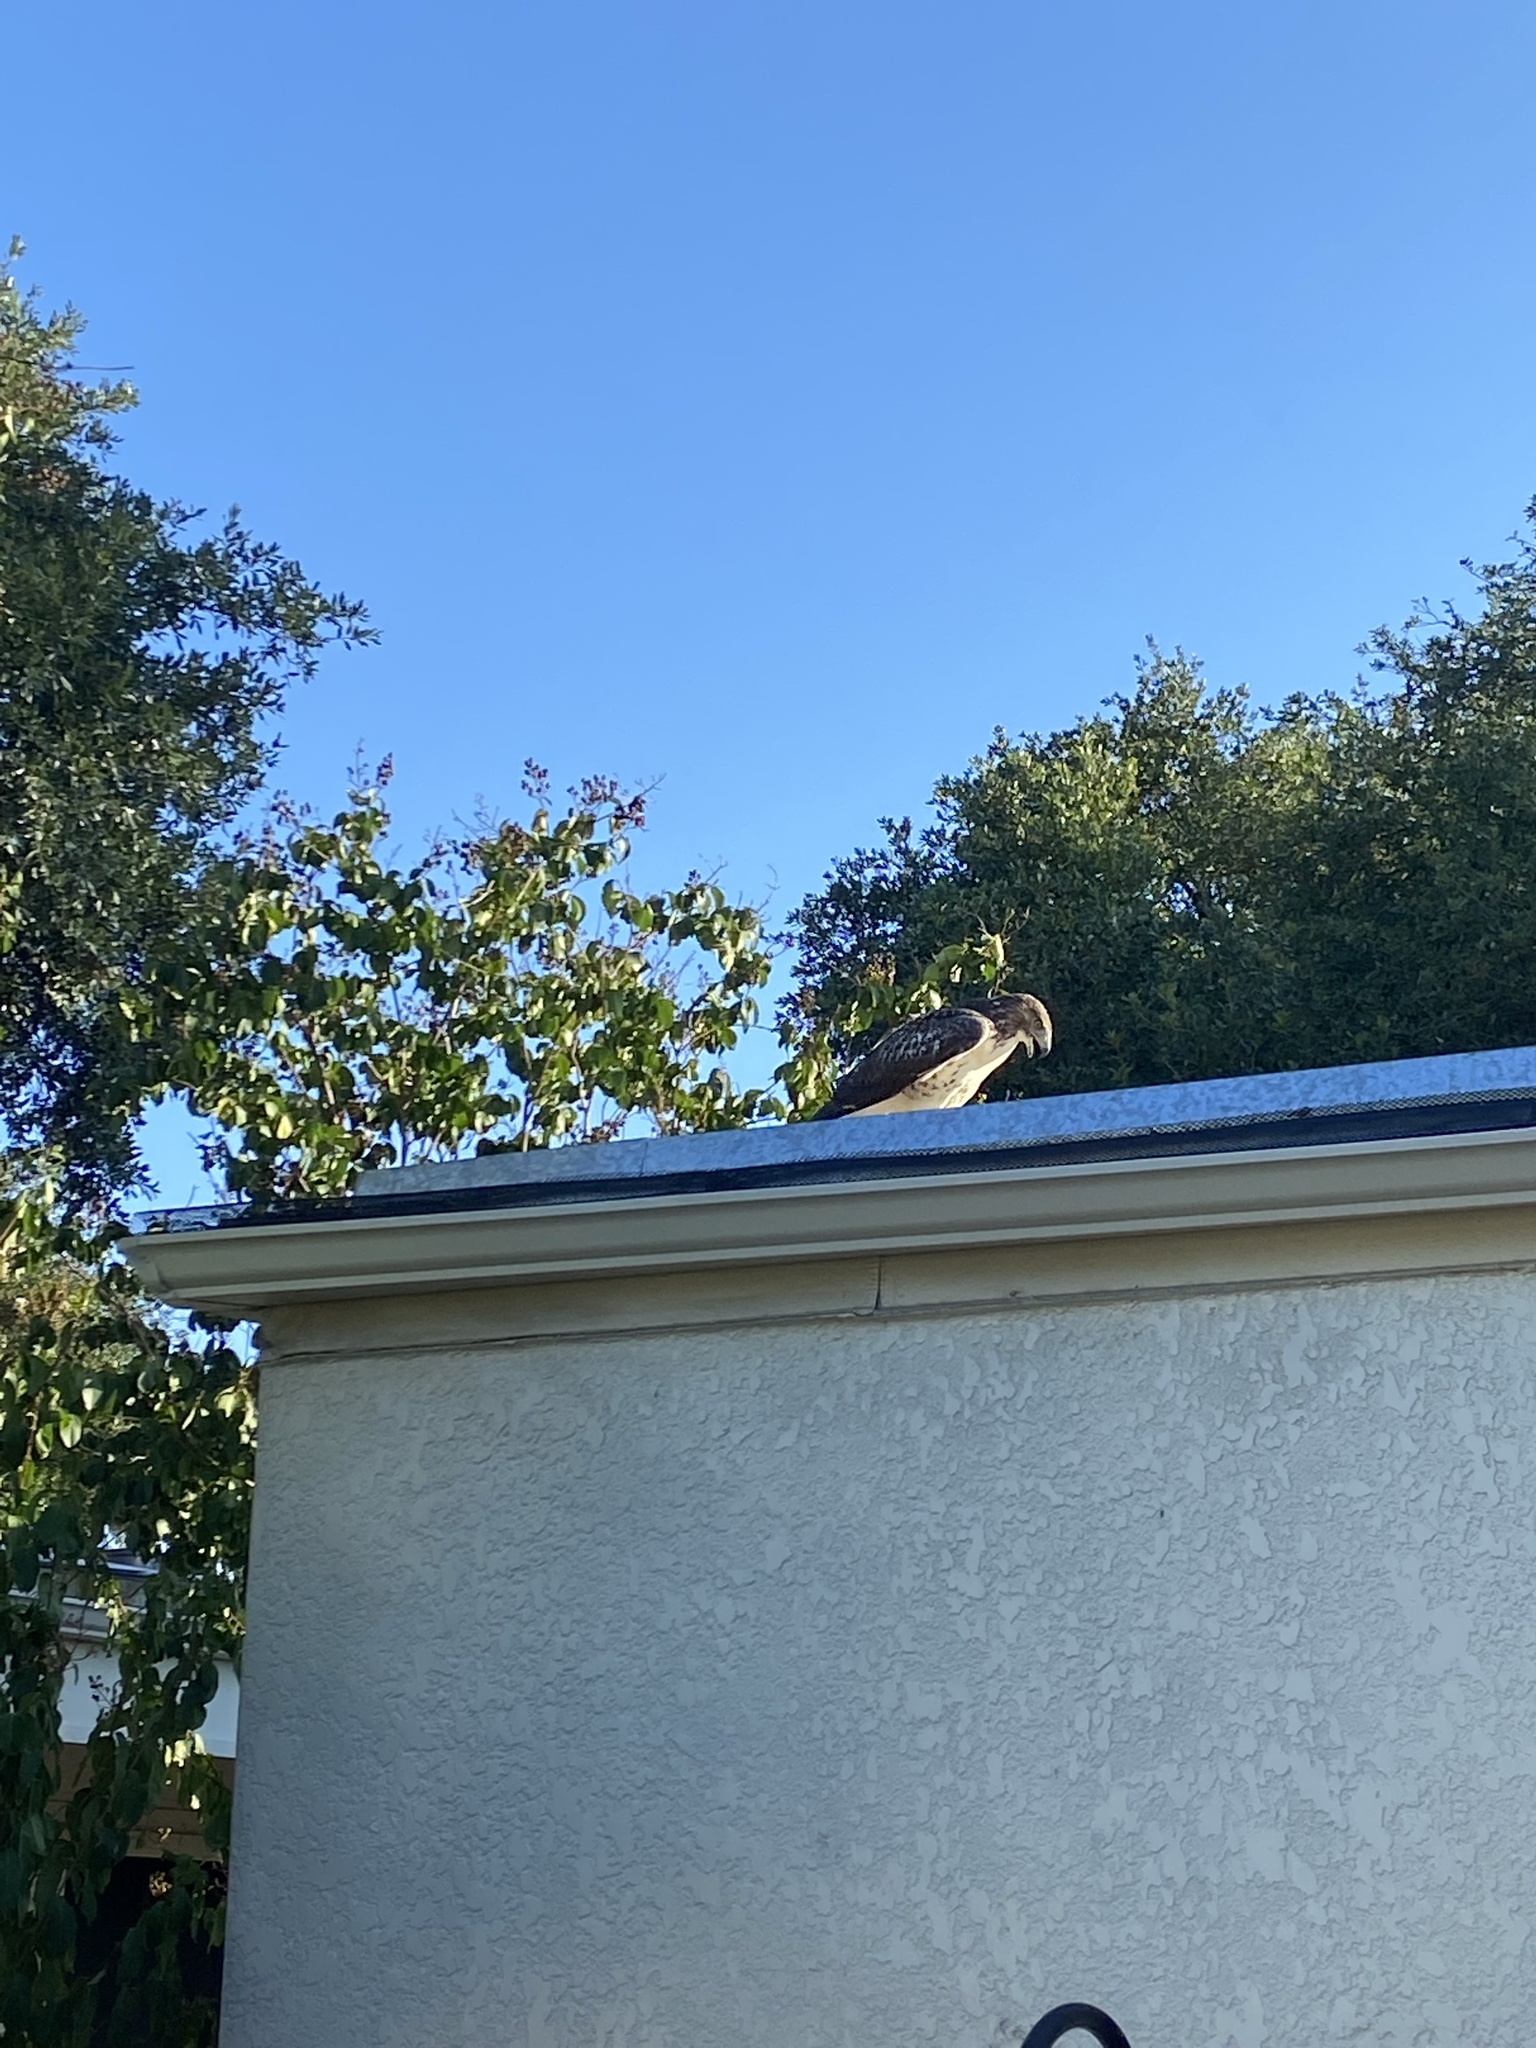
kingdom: Animalia
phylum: Chordata
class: Aves
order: Accipitriformes
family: Accipitridae
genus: Buteo
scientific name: Buteo jamaicensis
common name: Red-tailed hawk
